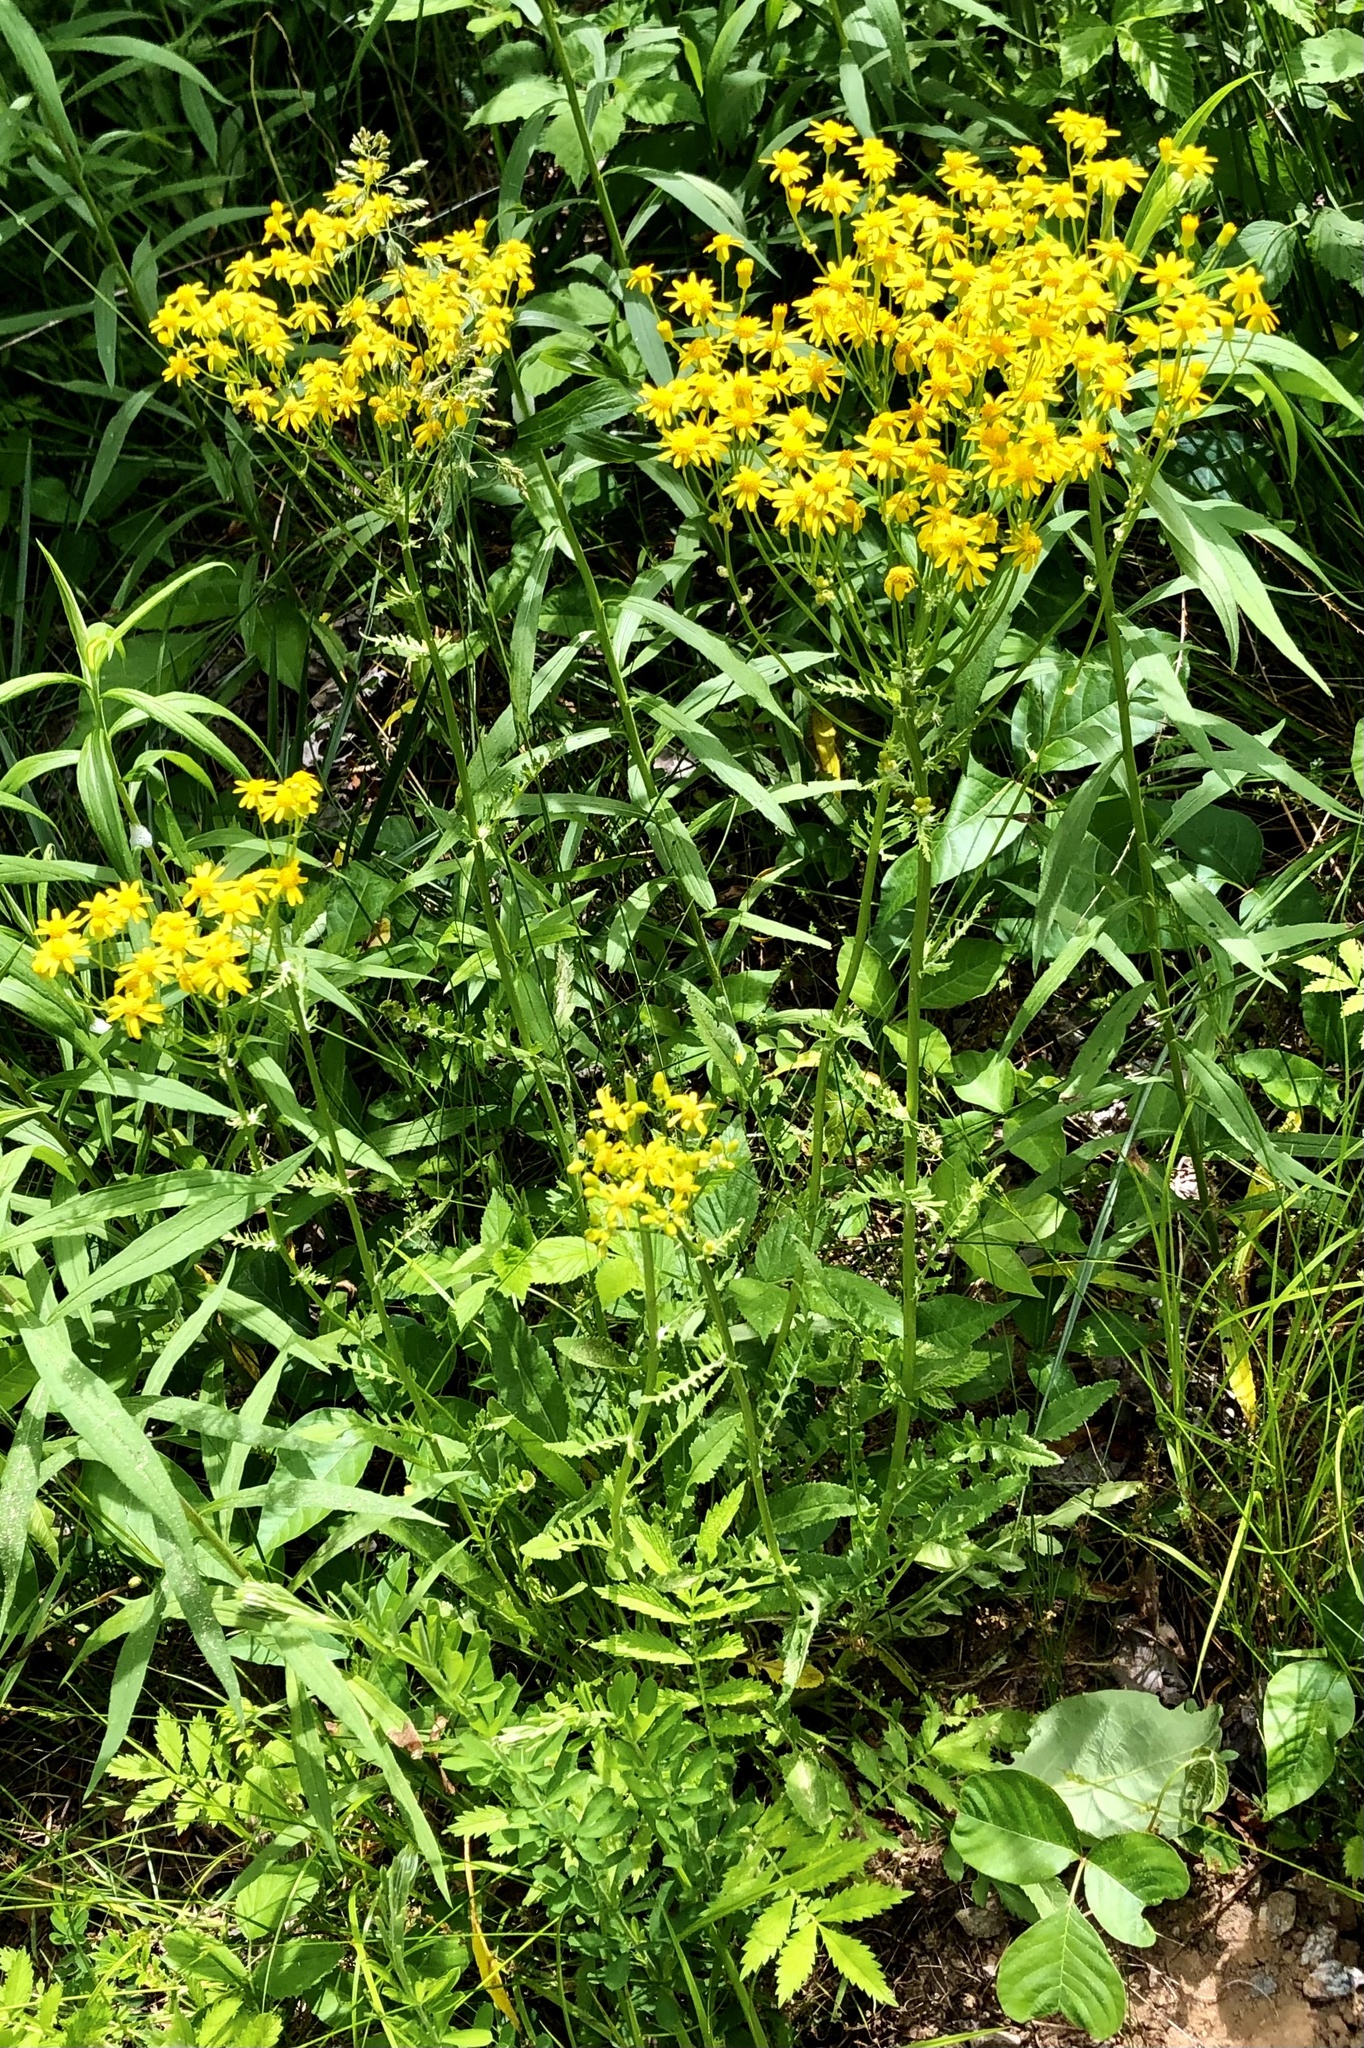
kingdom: Plantae
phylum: Tracheophyta
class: Magnoliopsida
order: Asterales
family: Asteraceae
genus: Packera
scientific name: Packera anonyma
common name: Small ragwort
